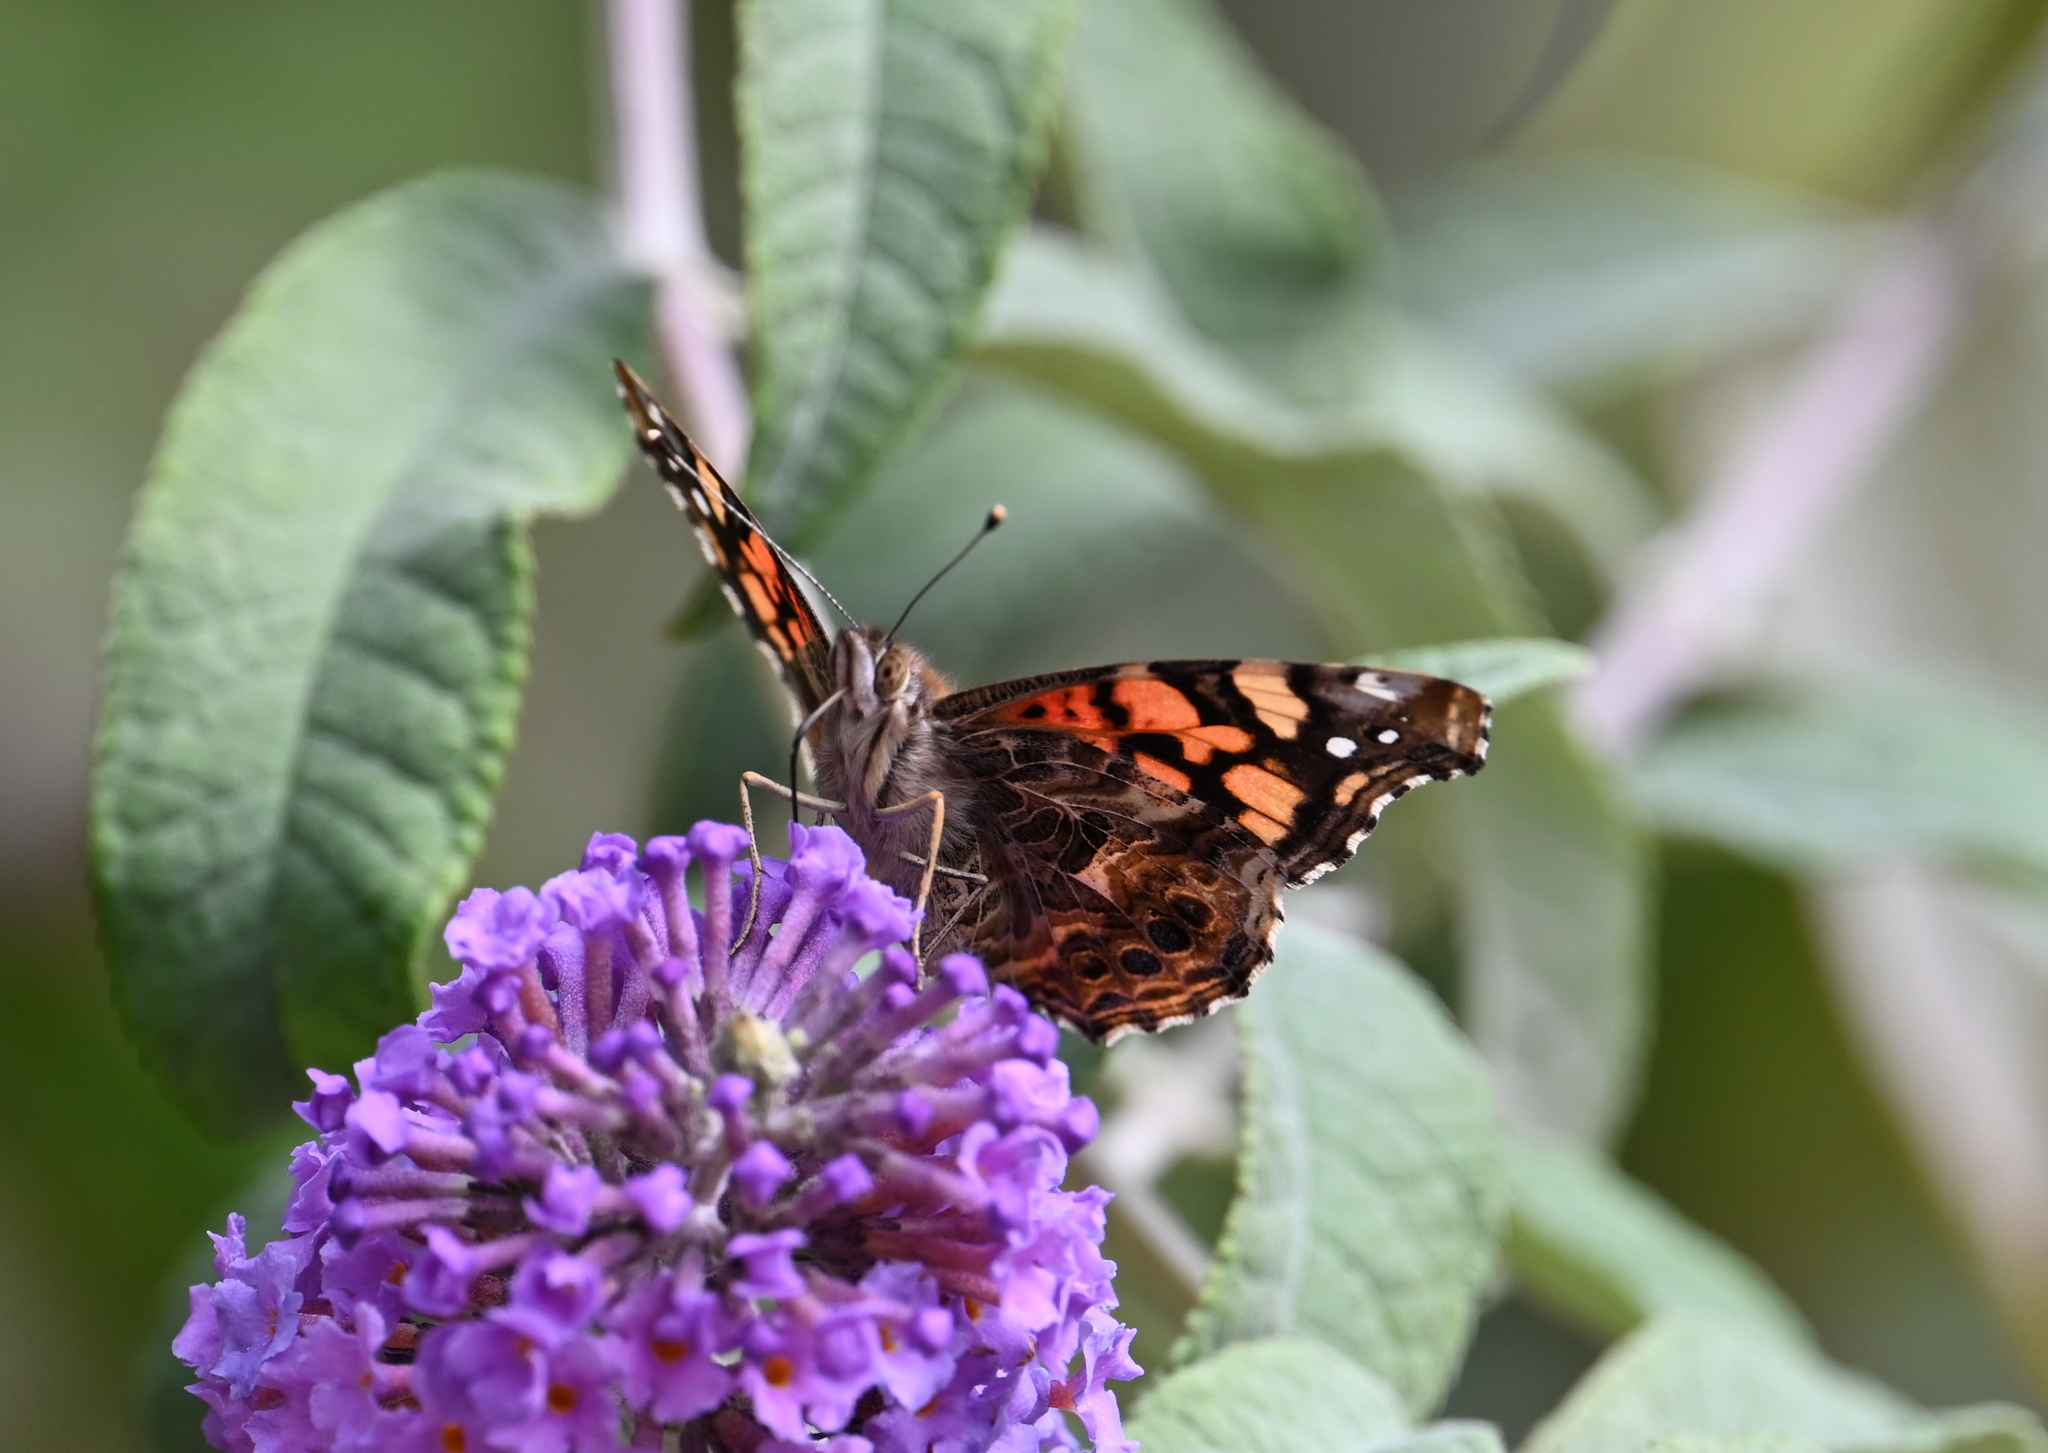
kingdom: Animalia
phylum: Arthropoda
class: Insecta
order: Lepidoptera
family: Nymphalidae
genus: Vanessa
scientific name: Vanessa annabella
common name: West coast lady
